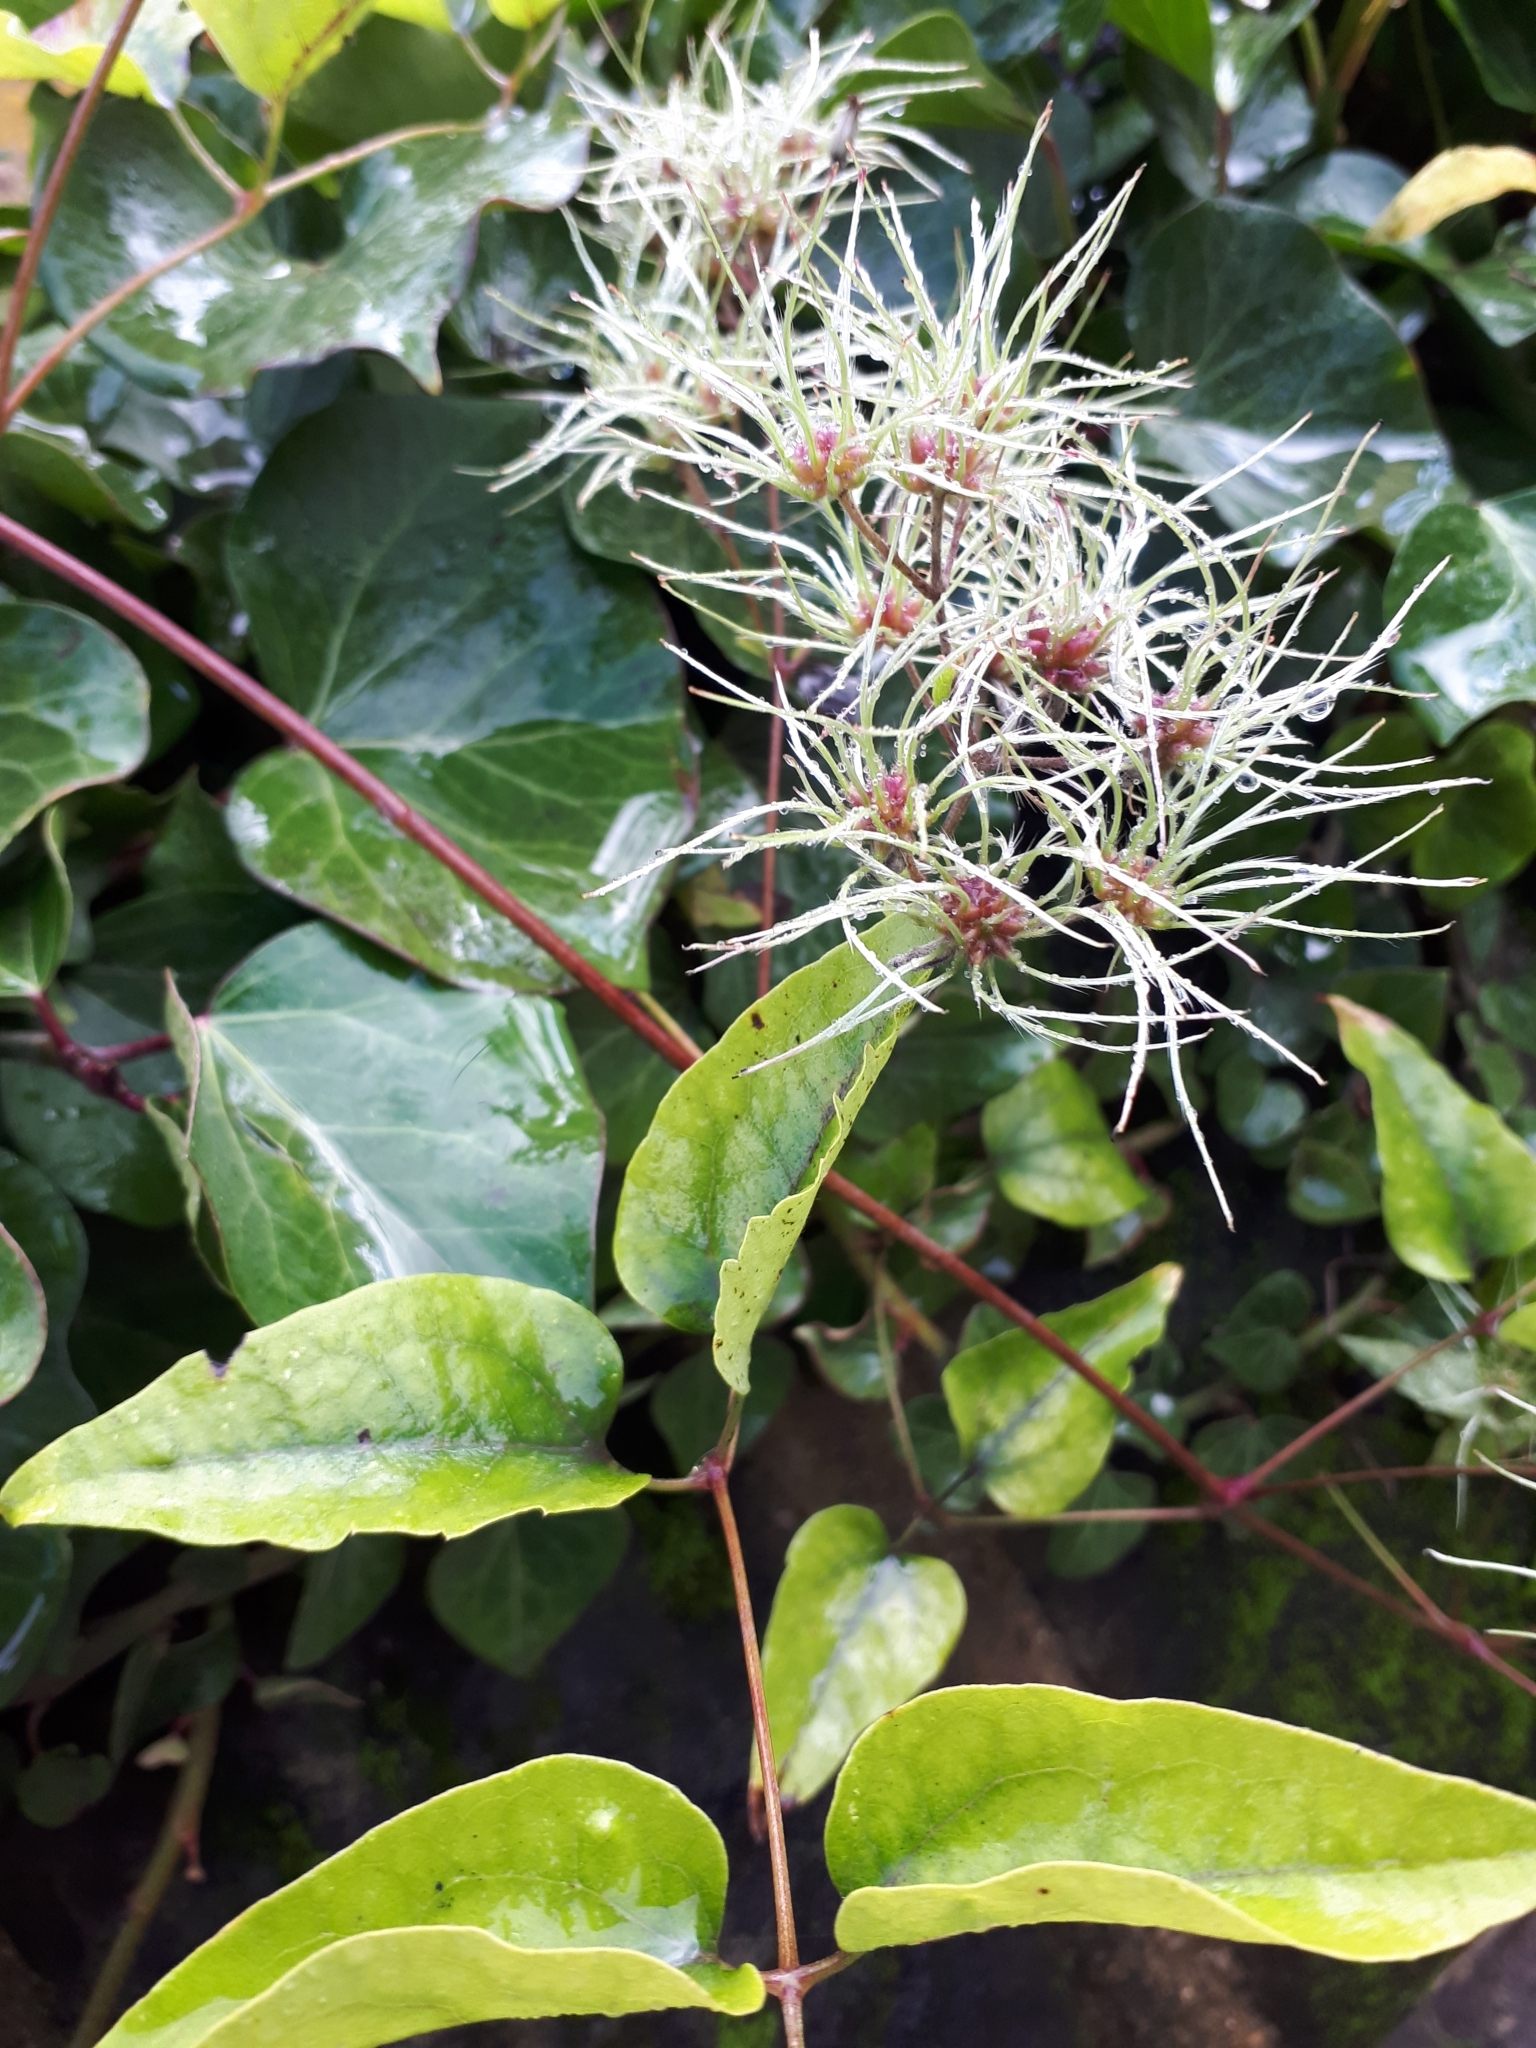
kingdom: Plantae
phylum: Tracheophyta
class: Magnoliopsida
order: Ranunculales
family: Ranunculaceae
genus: Clematis
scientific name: Clematis vitalba
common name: Evergreen clematis
